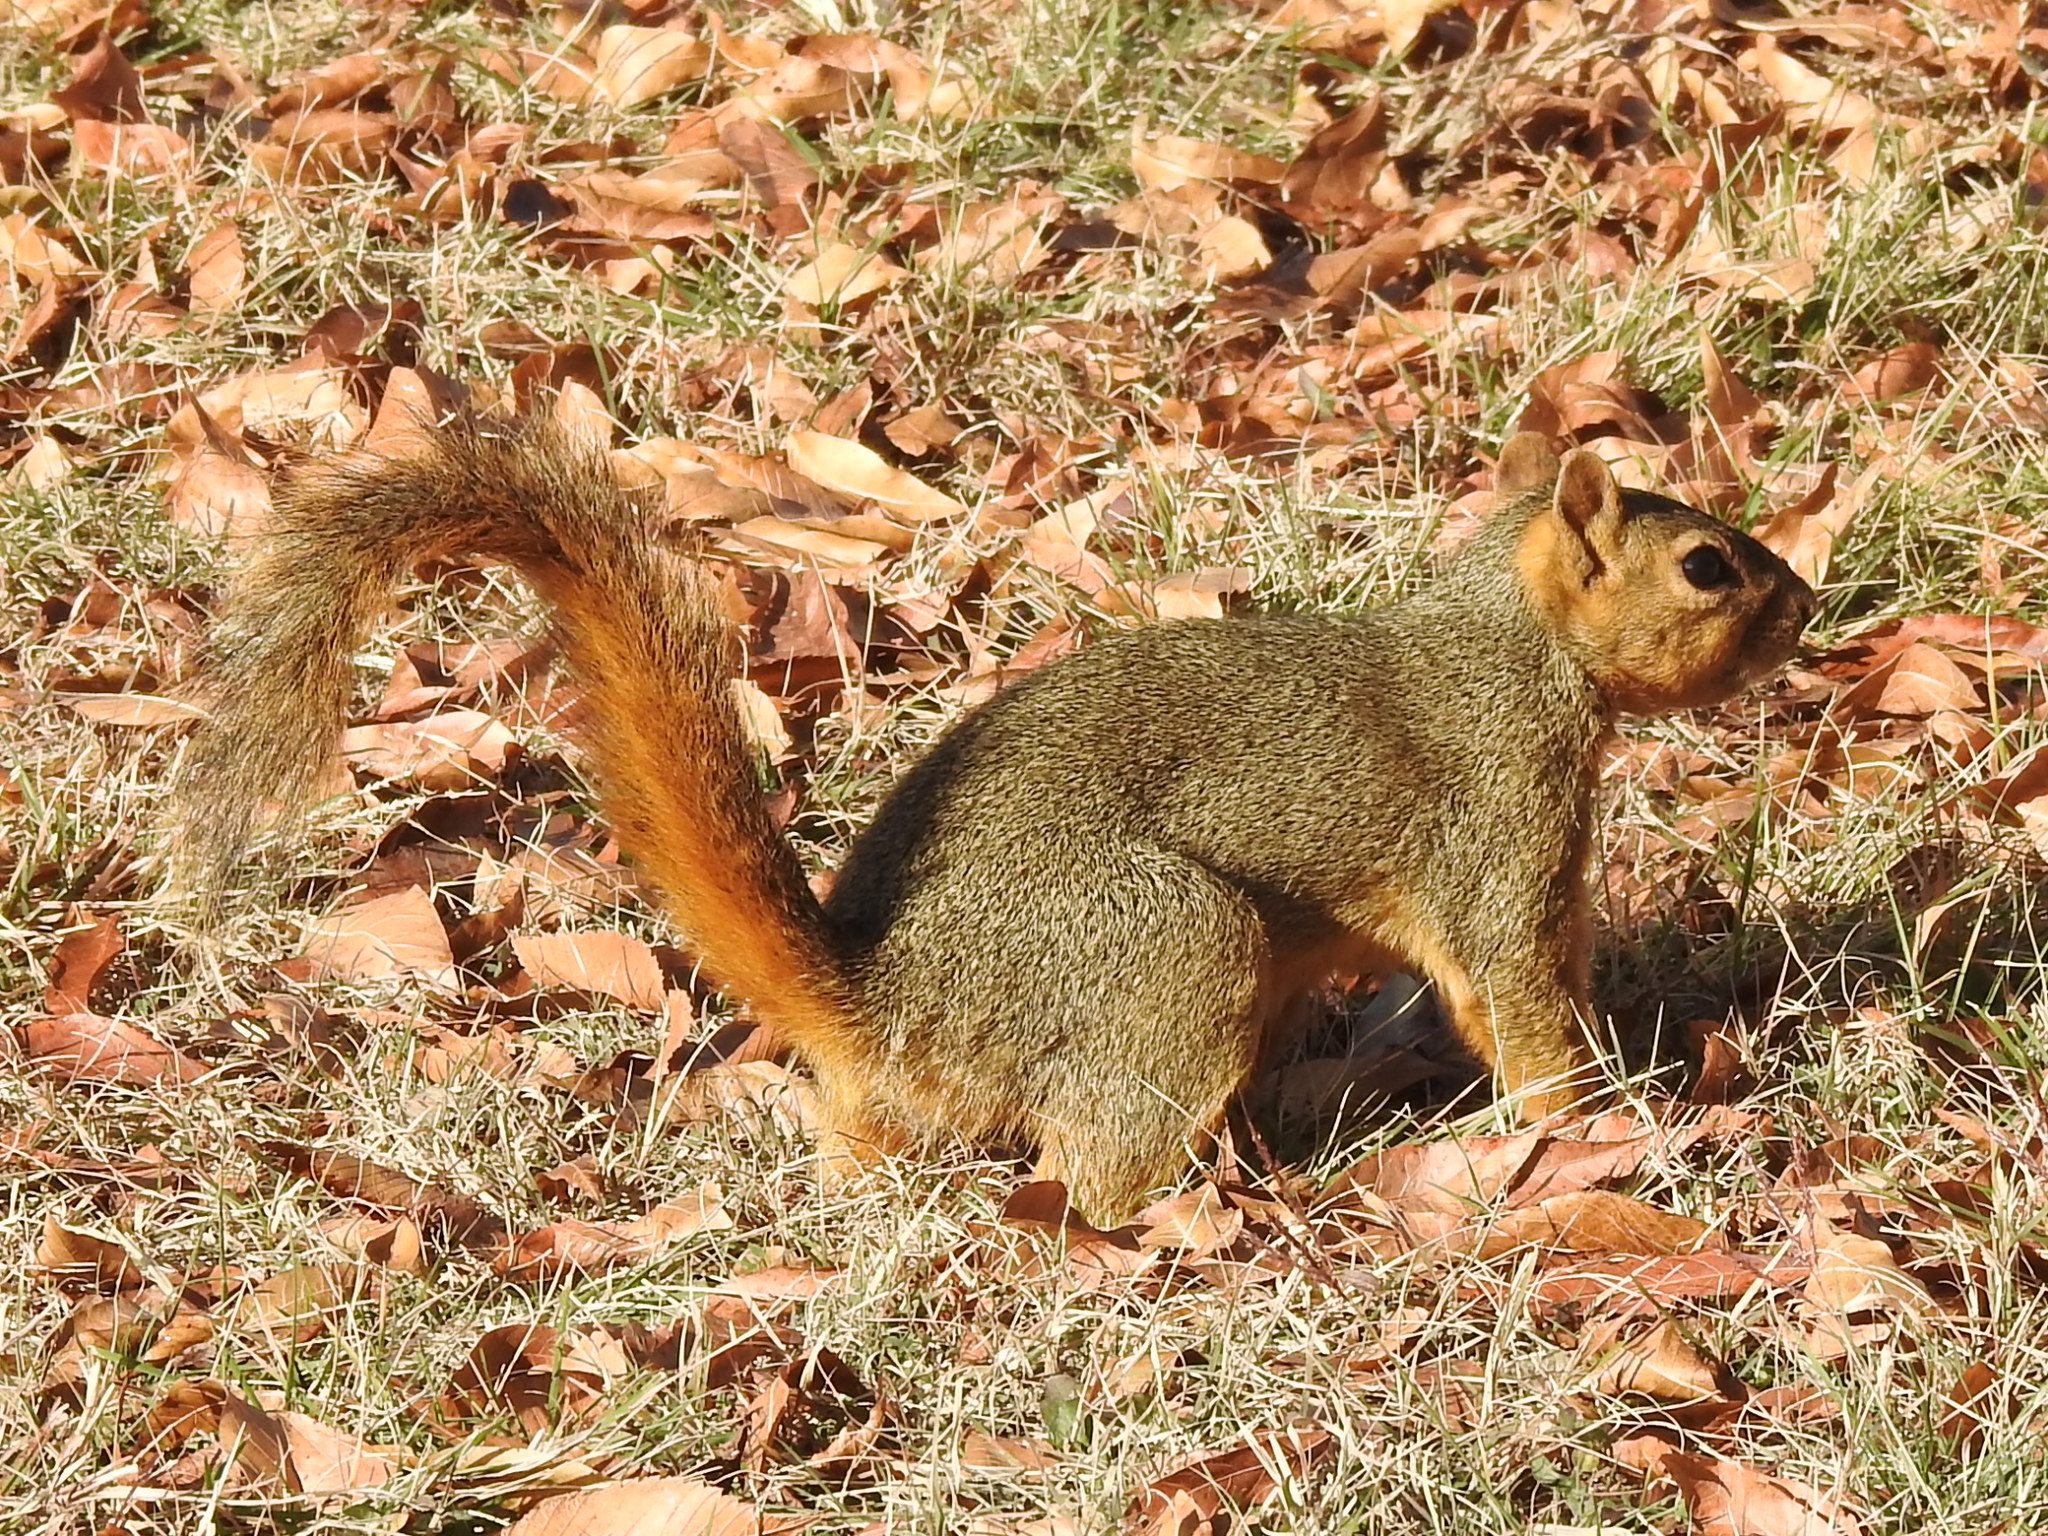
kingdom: Animalia
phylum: Chordata
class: Mammalia
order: Rodentia
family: Sciuridae
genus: Sciurus
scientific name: Sciurus niger
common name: Fox squirrel
